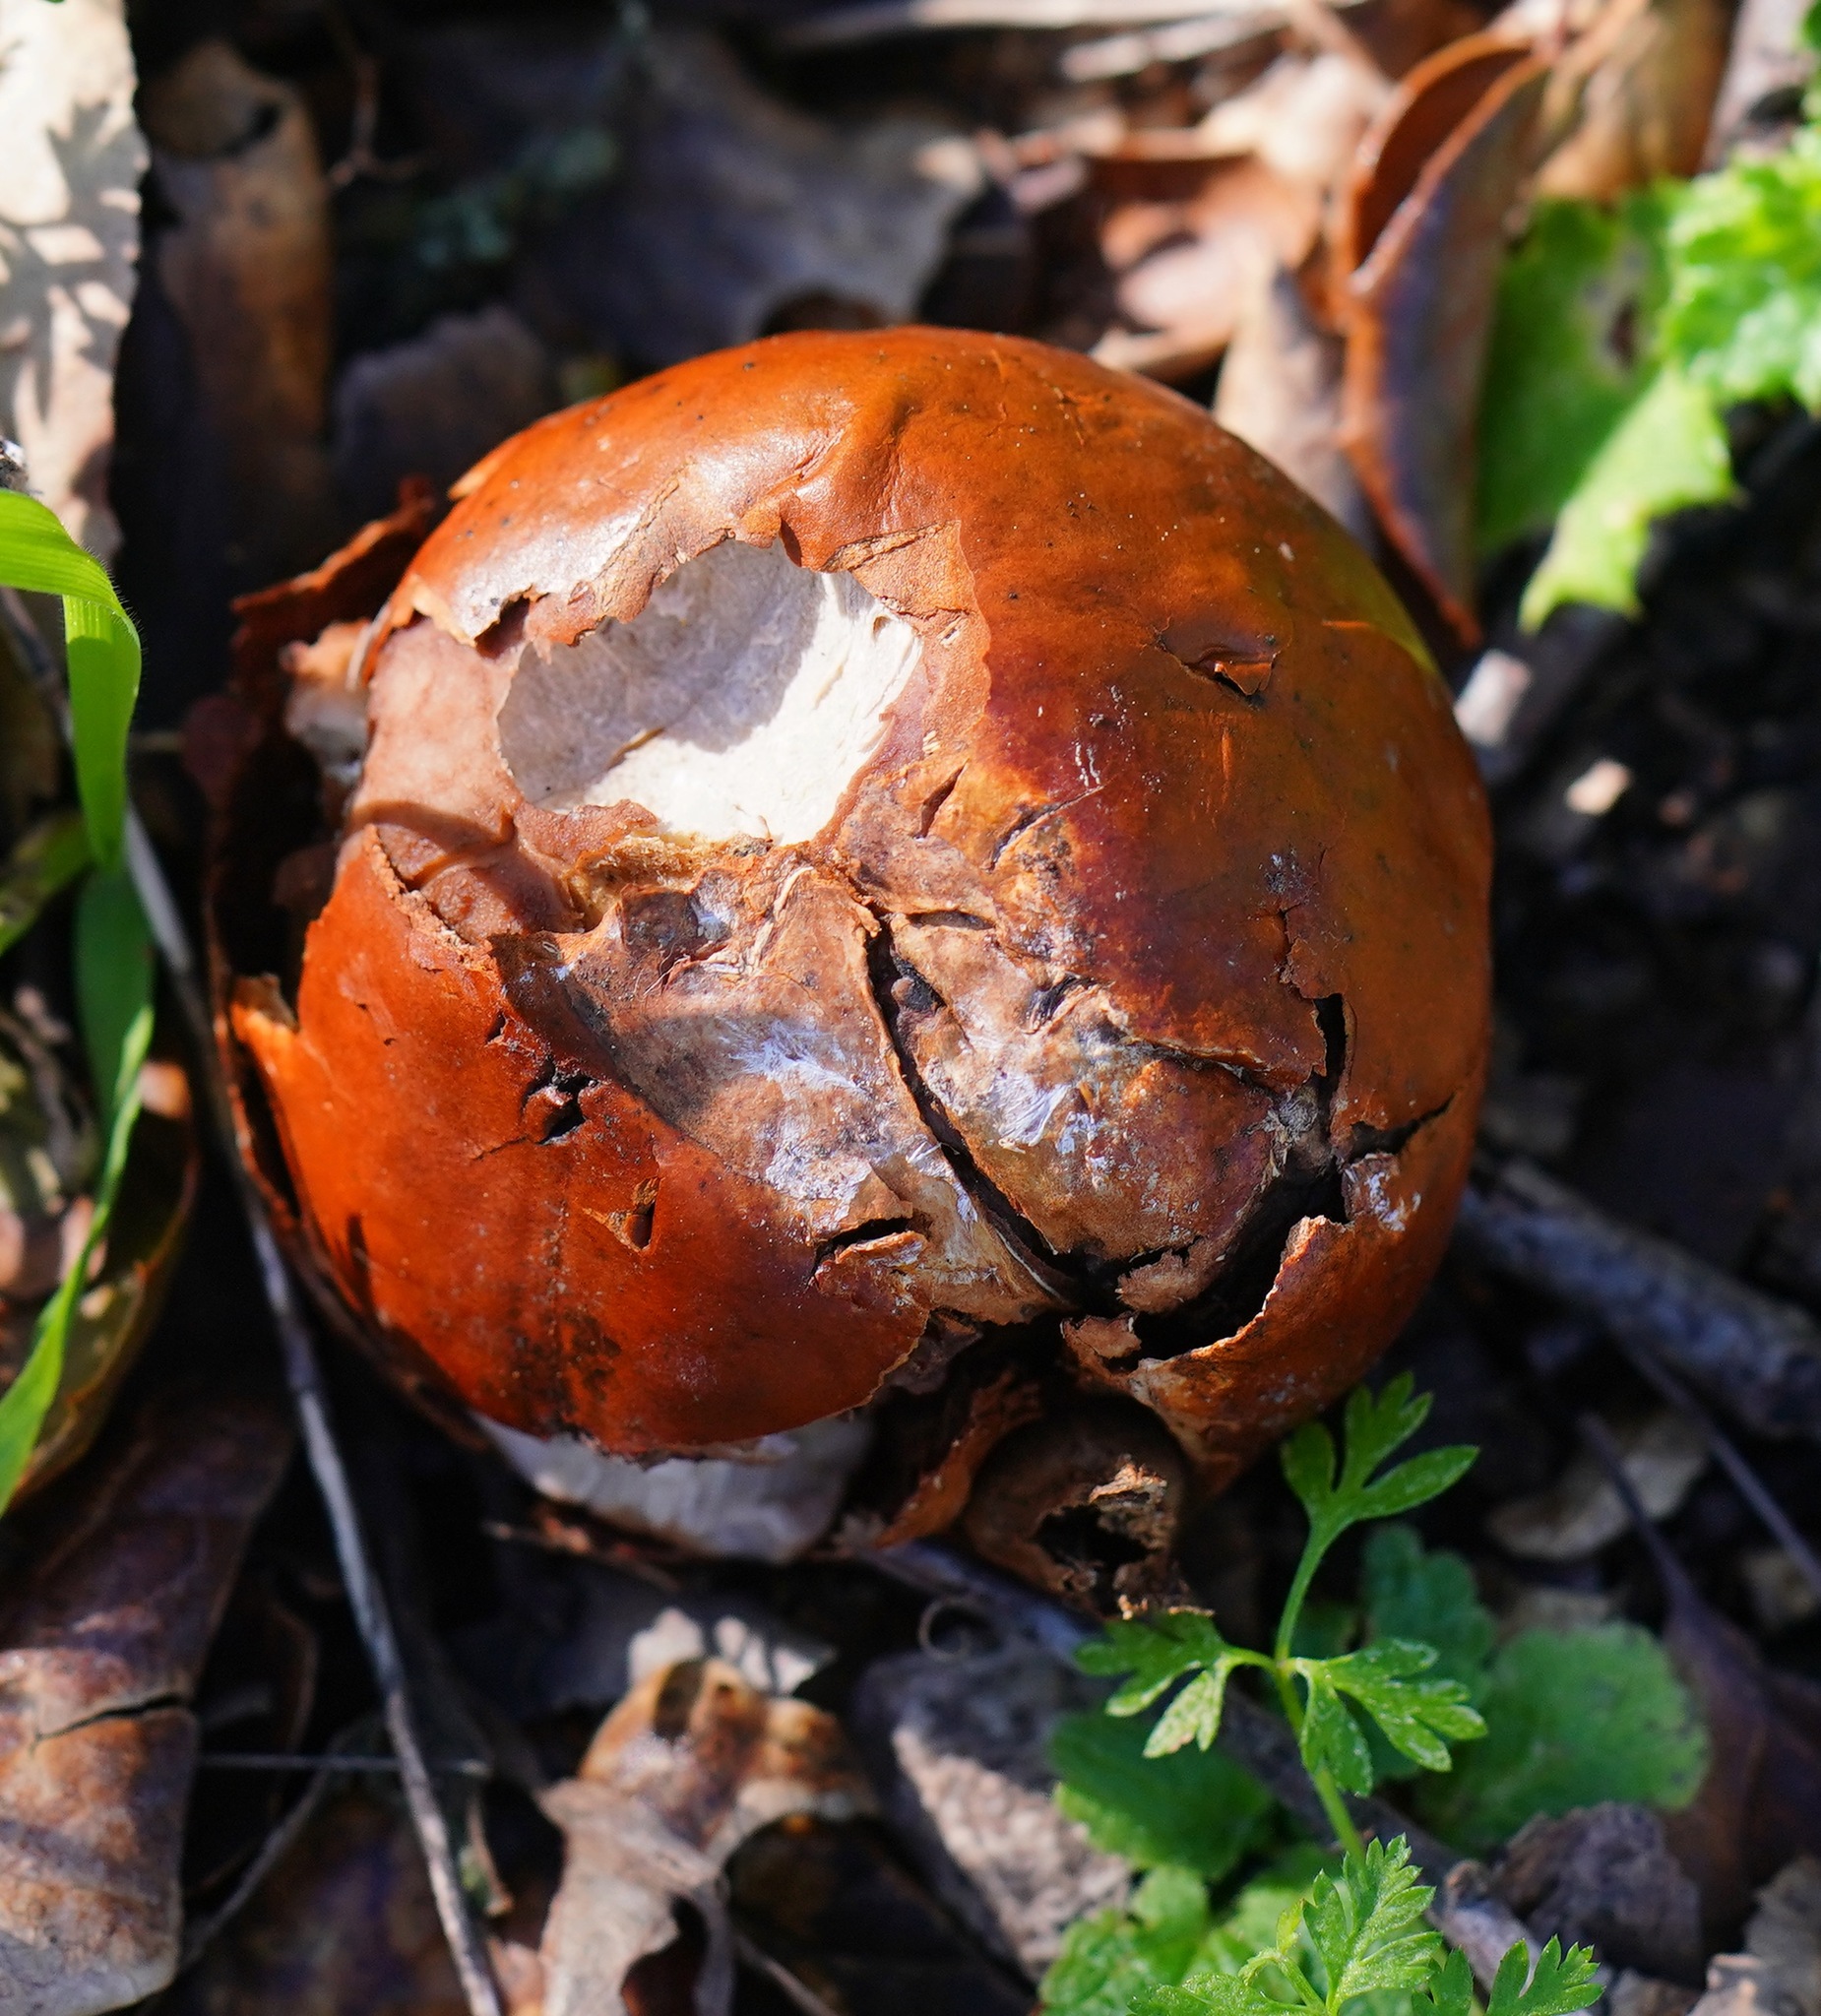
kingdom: Plantae
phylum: Tracheophyta
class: Magnoliopsida
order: Sapindales
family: Sapindaceae
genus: Aesculus
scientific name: Aesculus californica
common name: California buckeye
